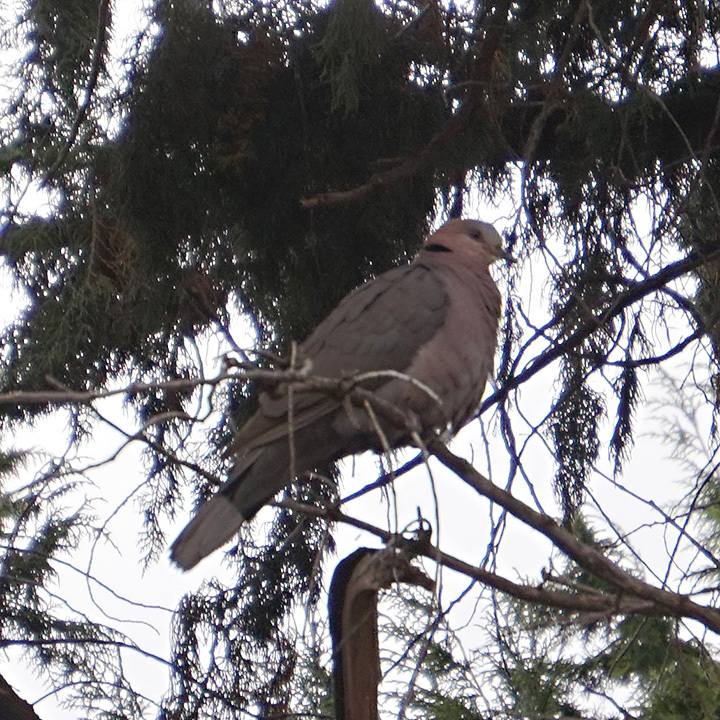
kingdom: Animalia
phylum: Chordata
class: Aves
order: Columbiformes
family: Columbidae
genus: Streptopelia
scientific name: Streptopelia semitorquata
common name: Red-eyed dove
